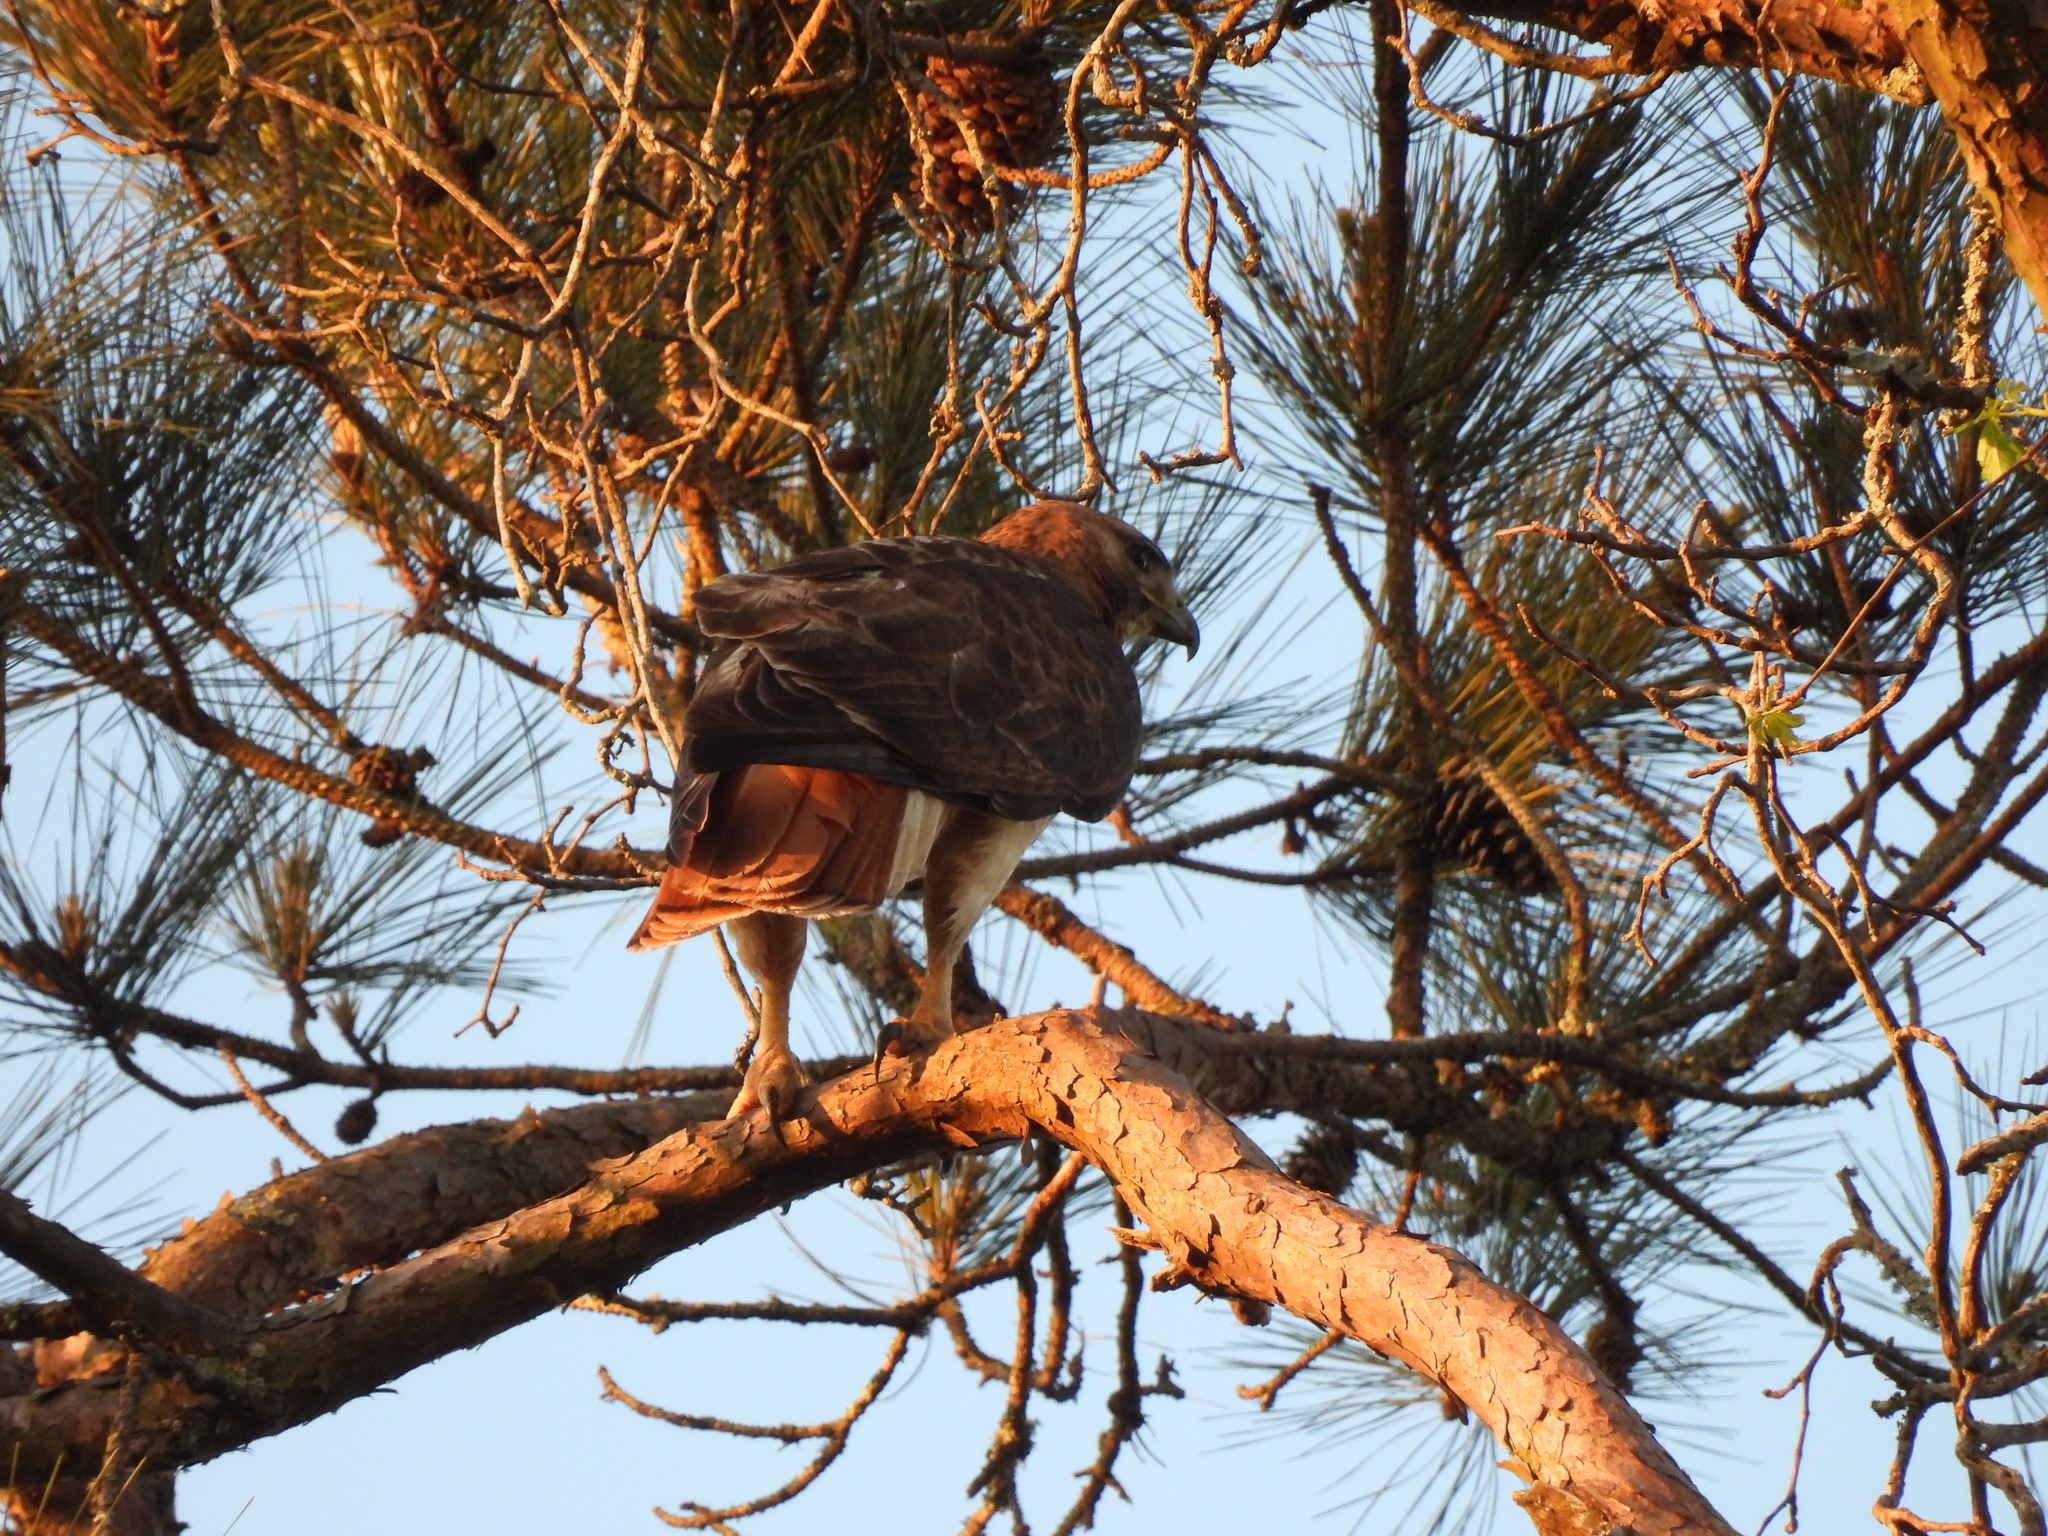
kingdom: Animalia
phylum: Chordata
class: Aves
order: Accipitriformes
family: Accipitridae
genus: Buteo
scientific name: Buteo jamaicensis
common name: Red-tailed hawk
